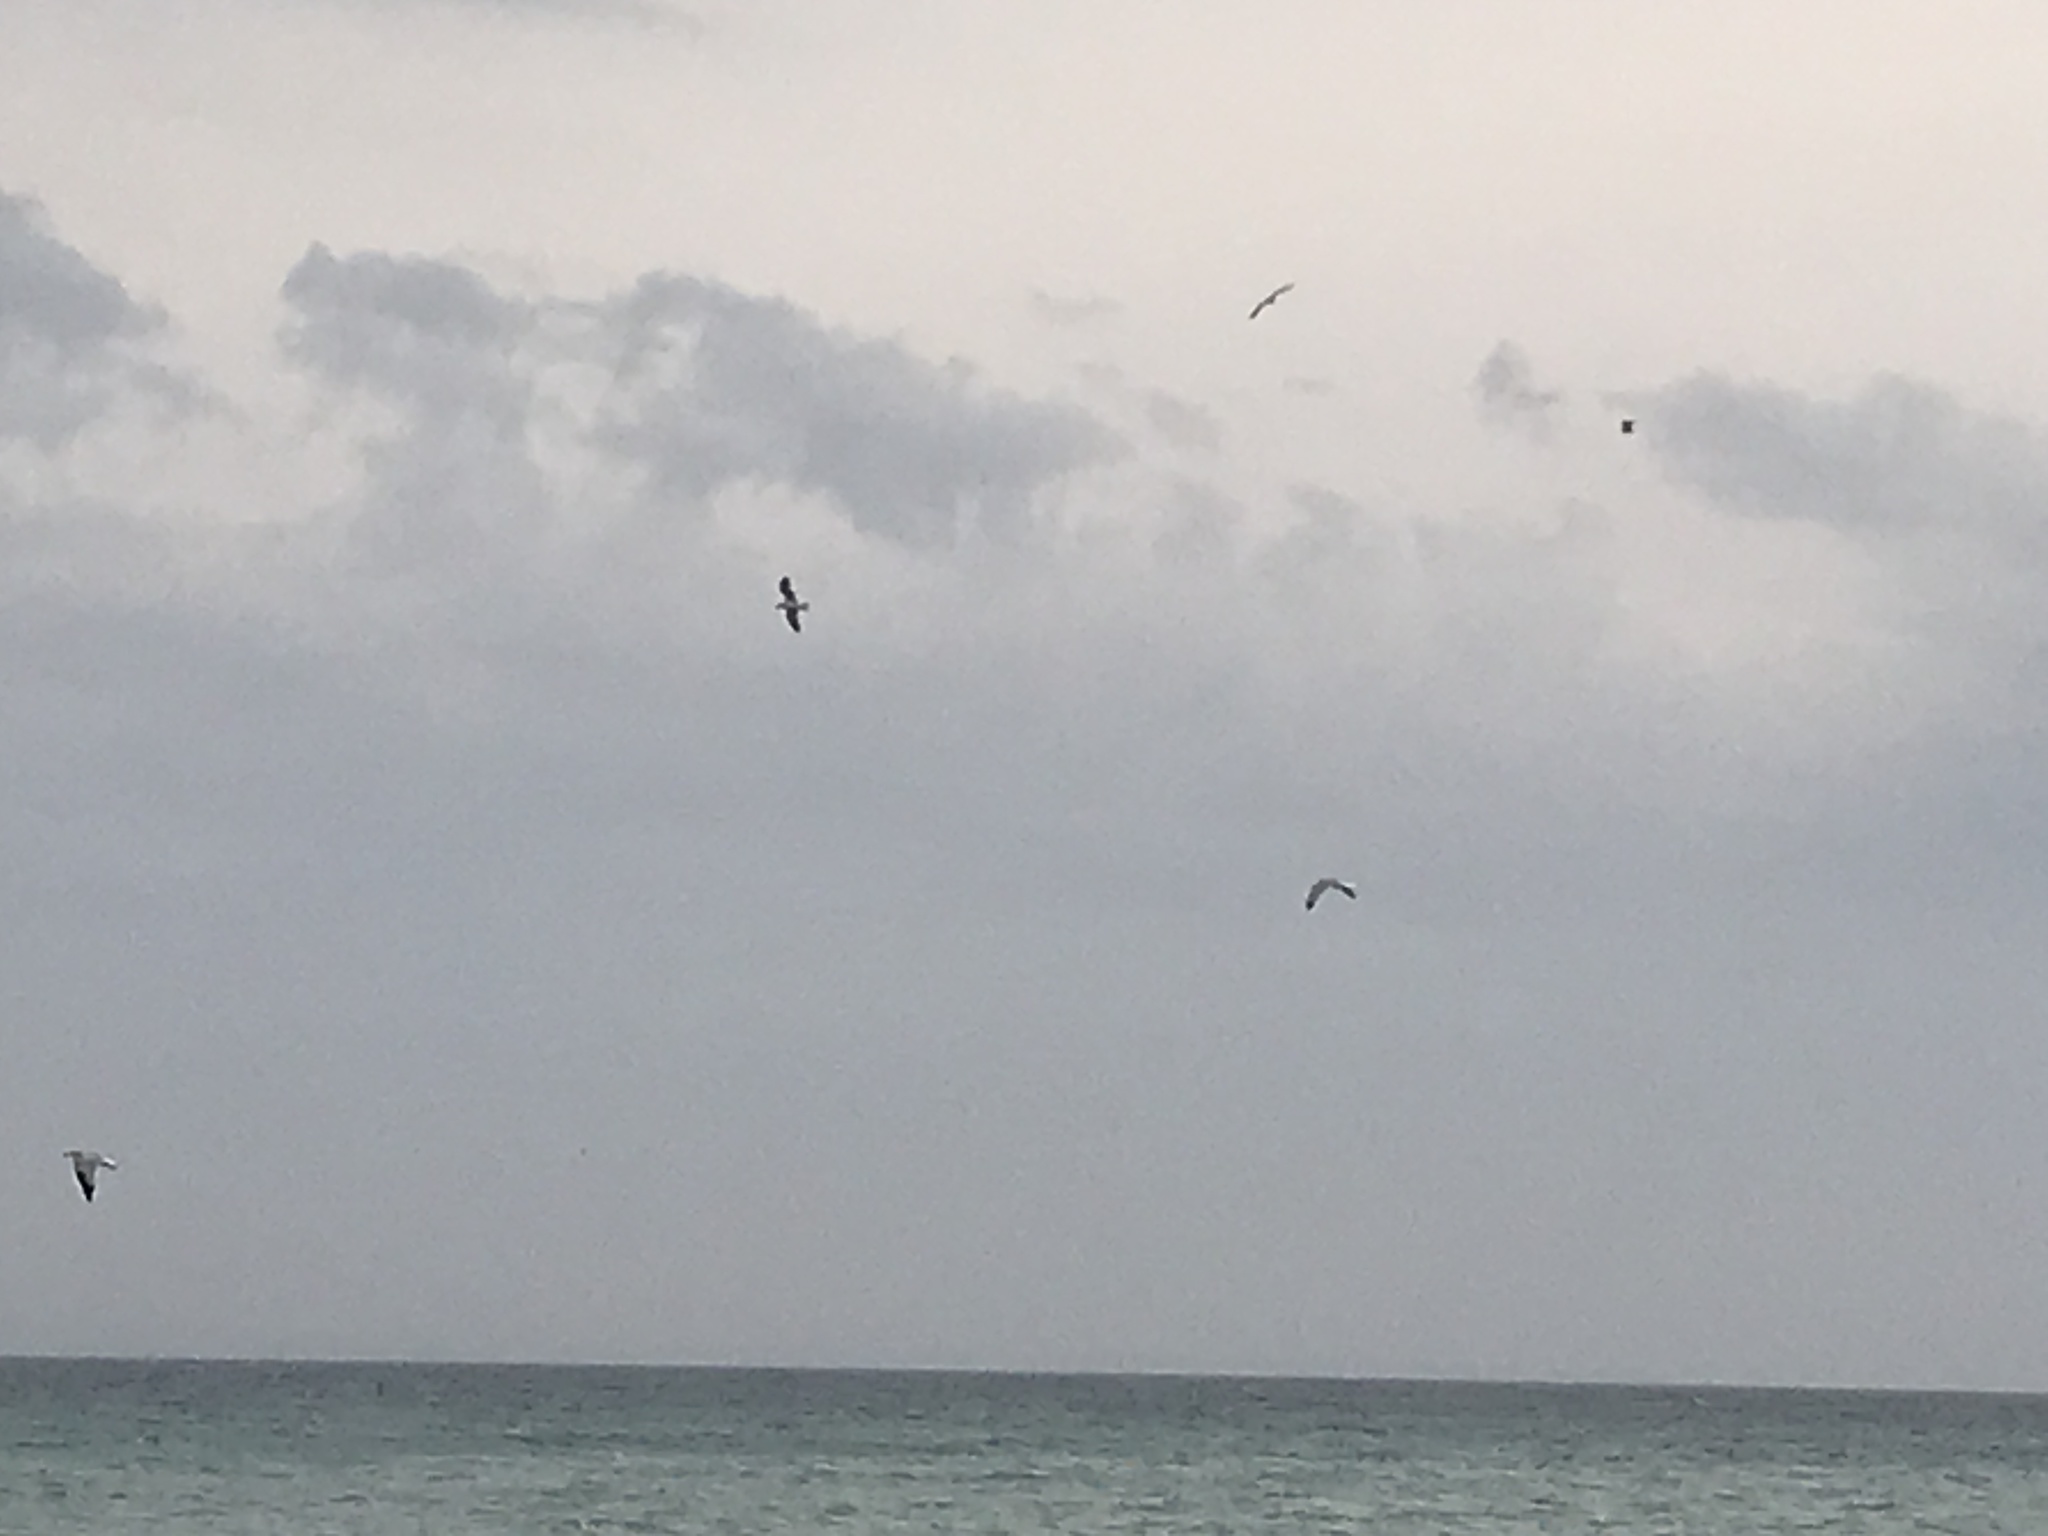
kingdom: Animalia
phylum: Chordata
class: Aves
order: Charadriiformes
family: Laridae
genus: Larus
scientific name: Larus
